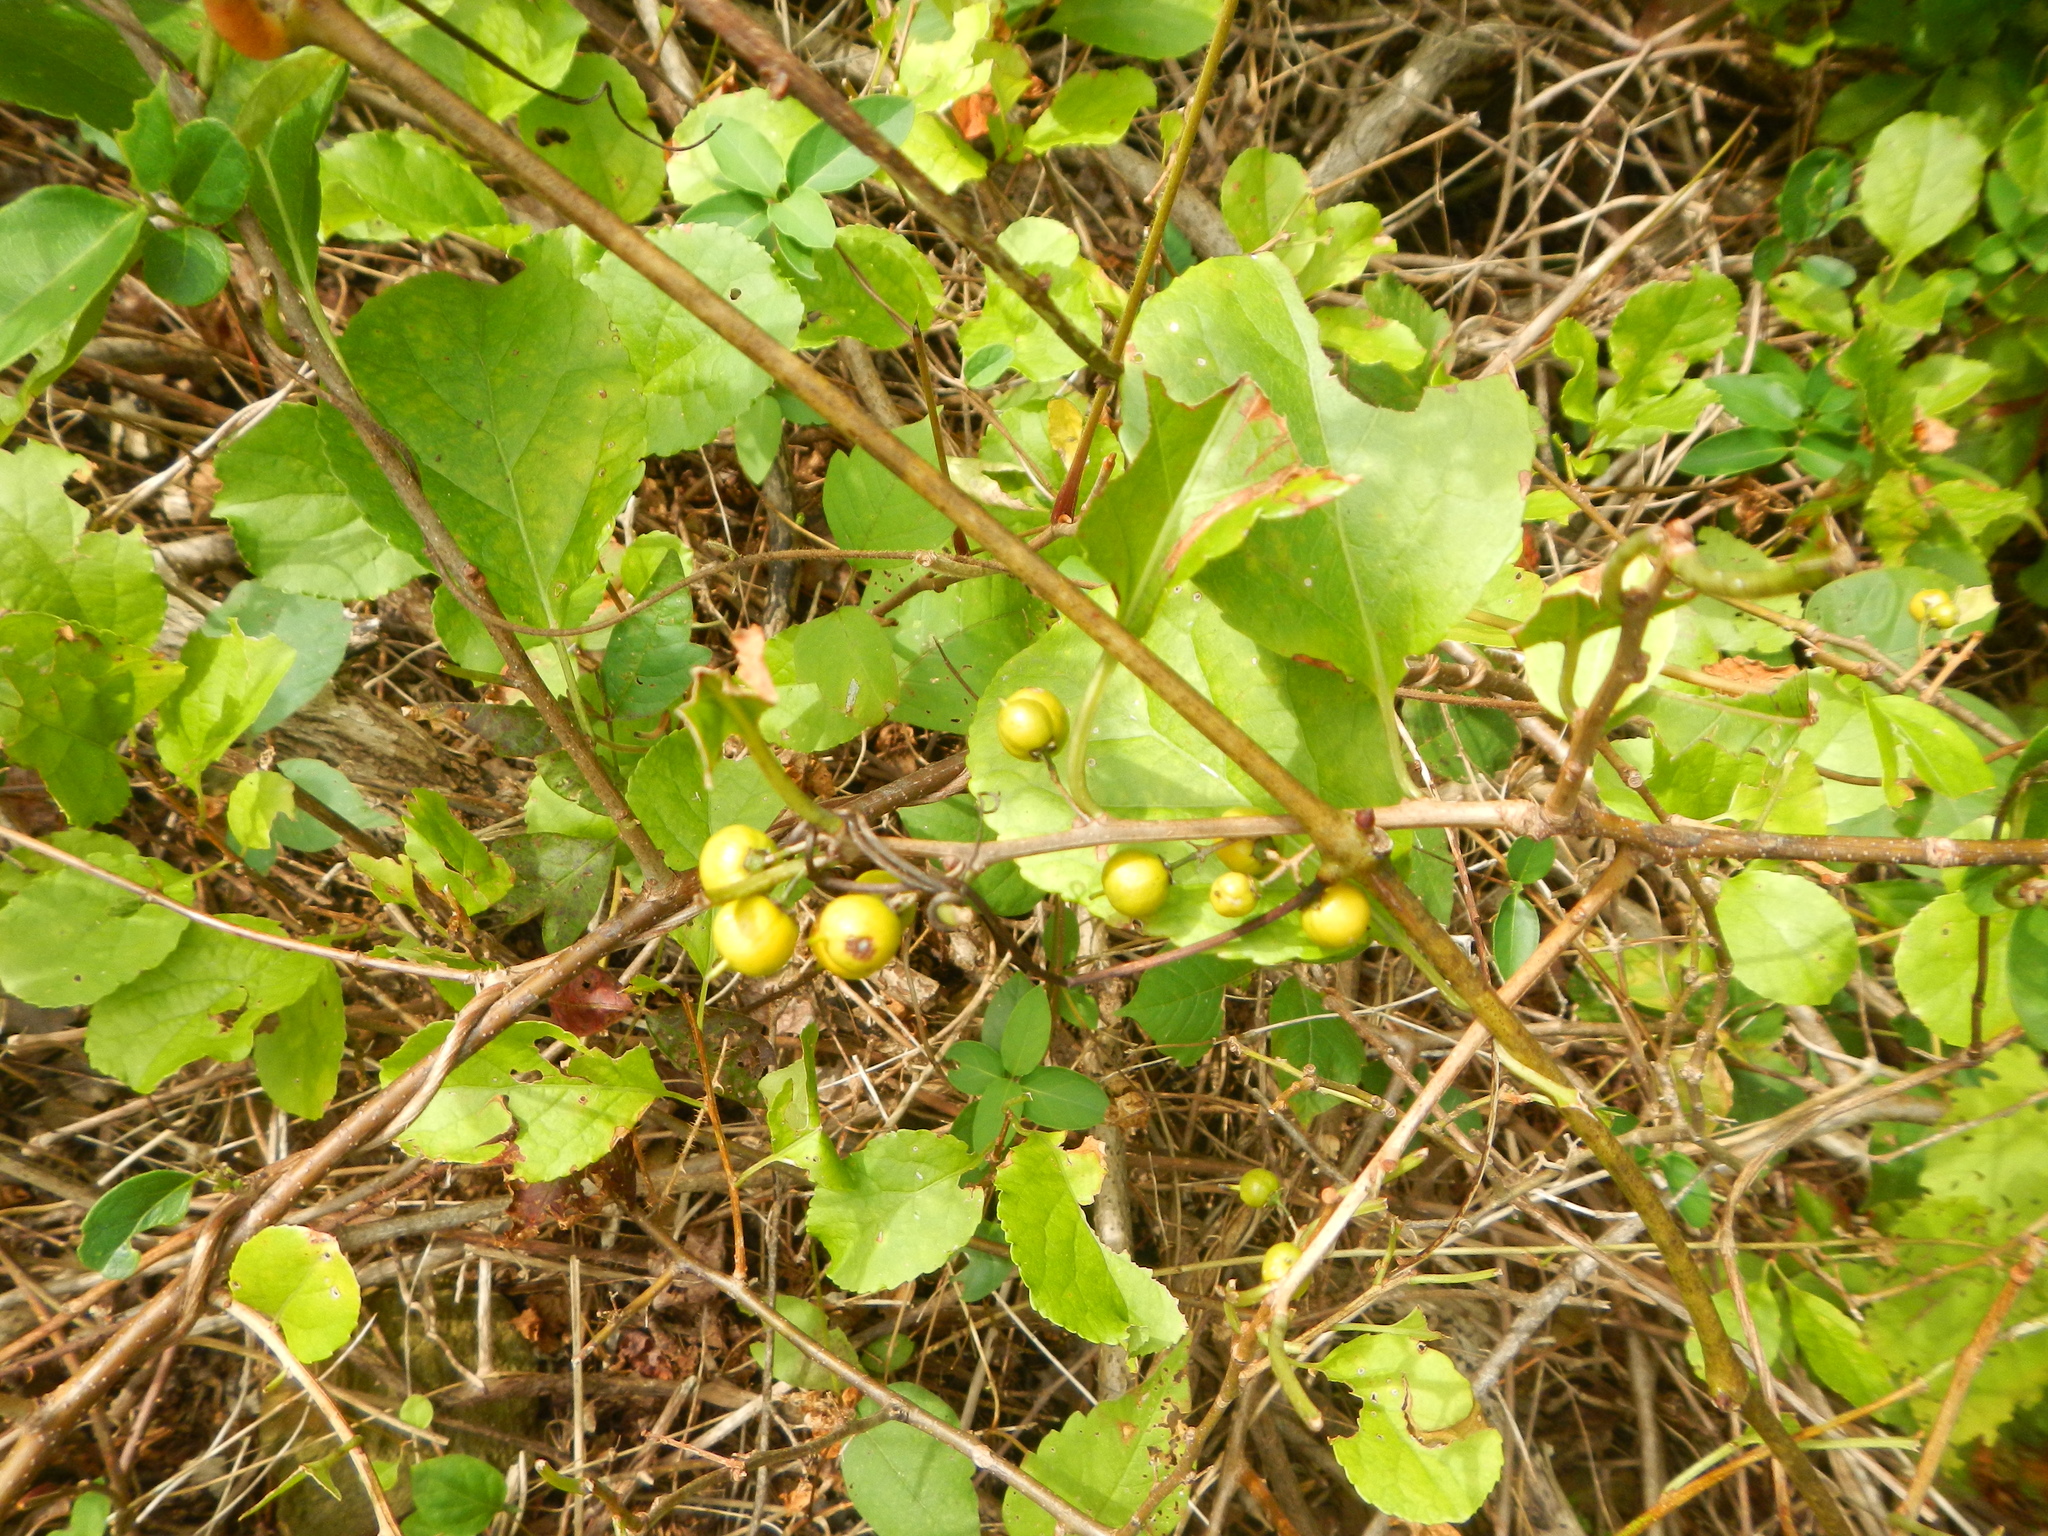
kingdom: Plantae
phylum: Tracheophyta
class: Magnoliopsida
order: Celastrales
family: Celastraceae
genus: Celastrus
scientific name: Celastrus orbiculatus
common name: Oriental bittersweet
